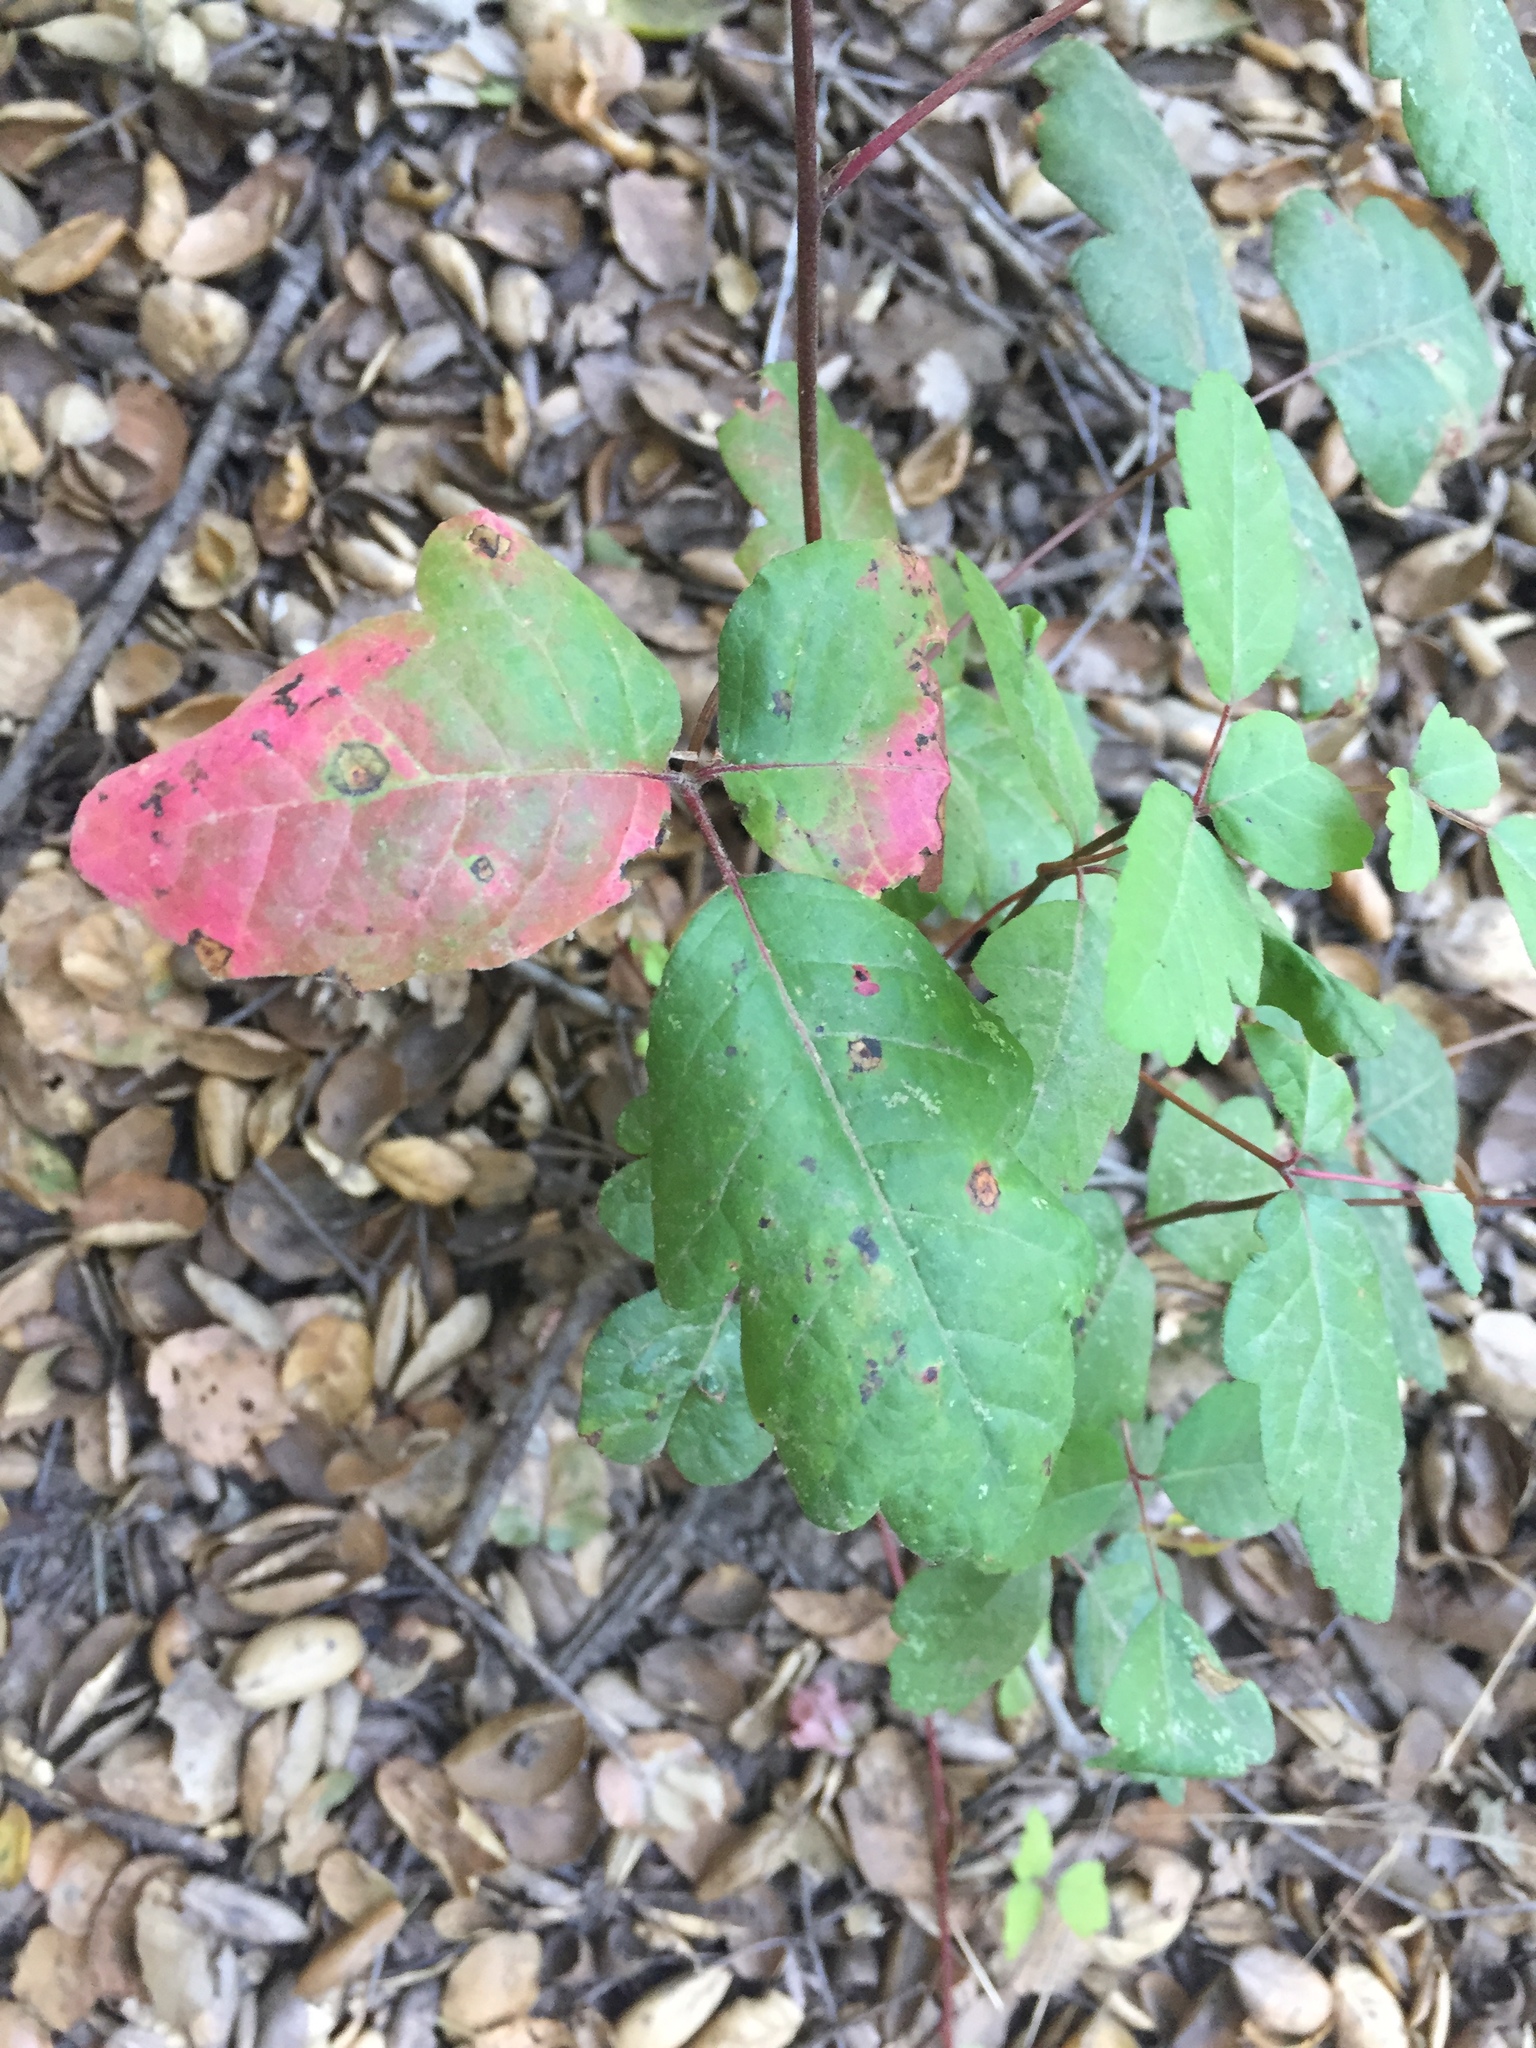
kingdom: Plantae
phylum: Tracheophyta
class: Magnoliopsida
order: Sapindales
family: Anacardiaceae
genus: Toxicodendron
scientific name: Toxicodendron diversilobum
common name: Pacific poison-oak
